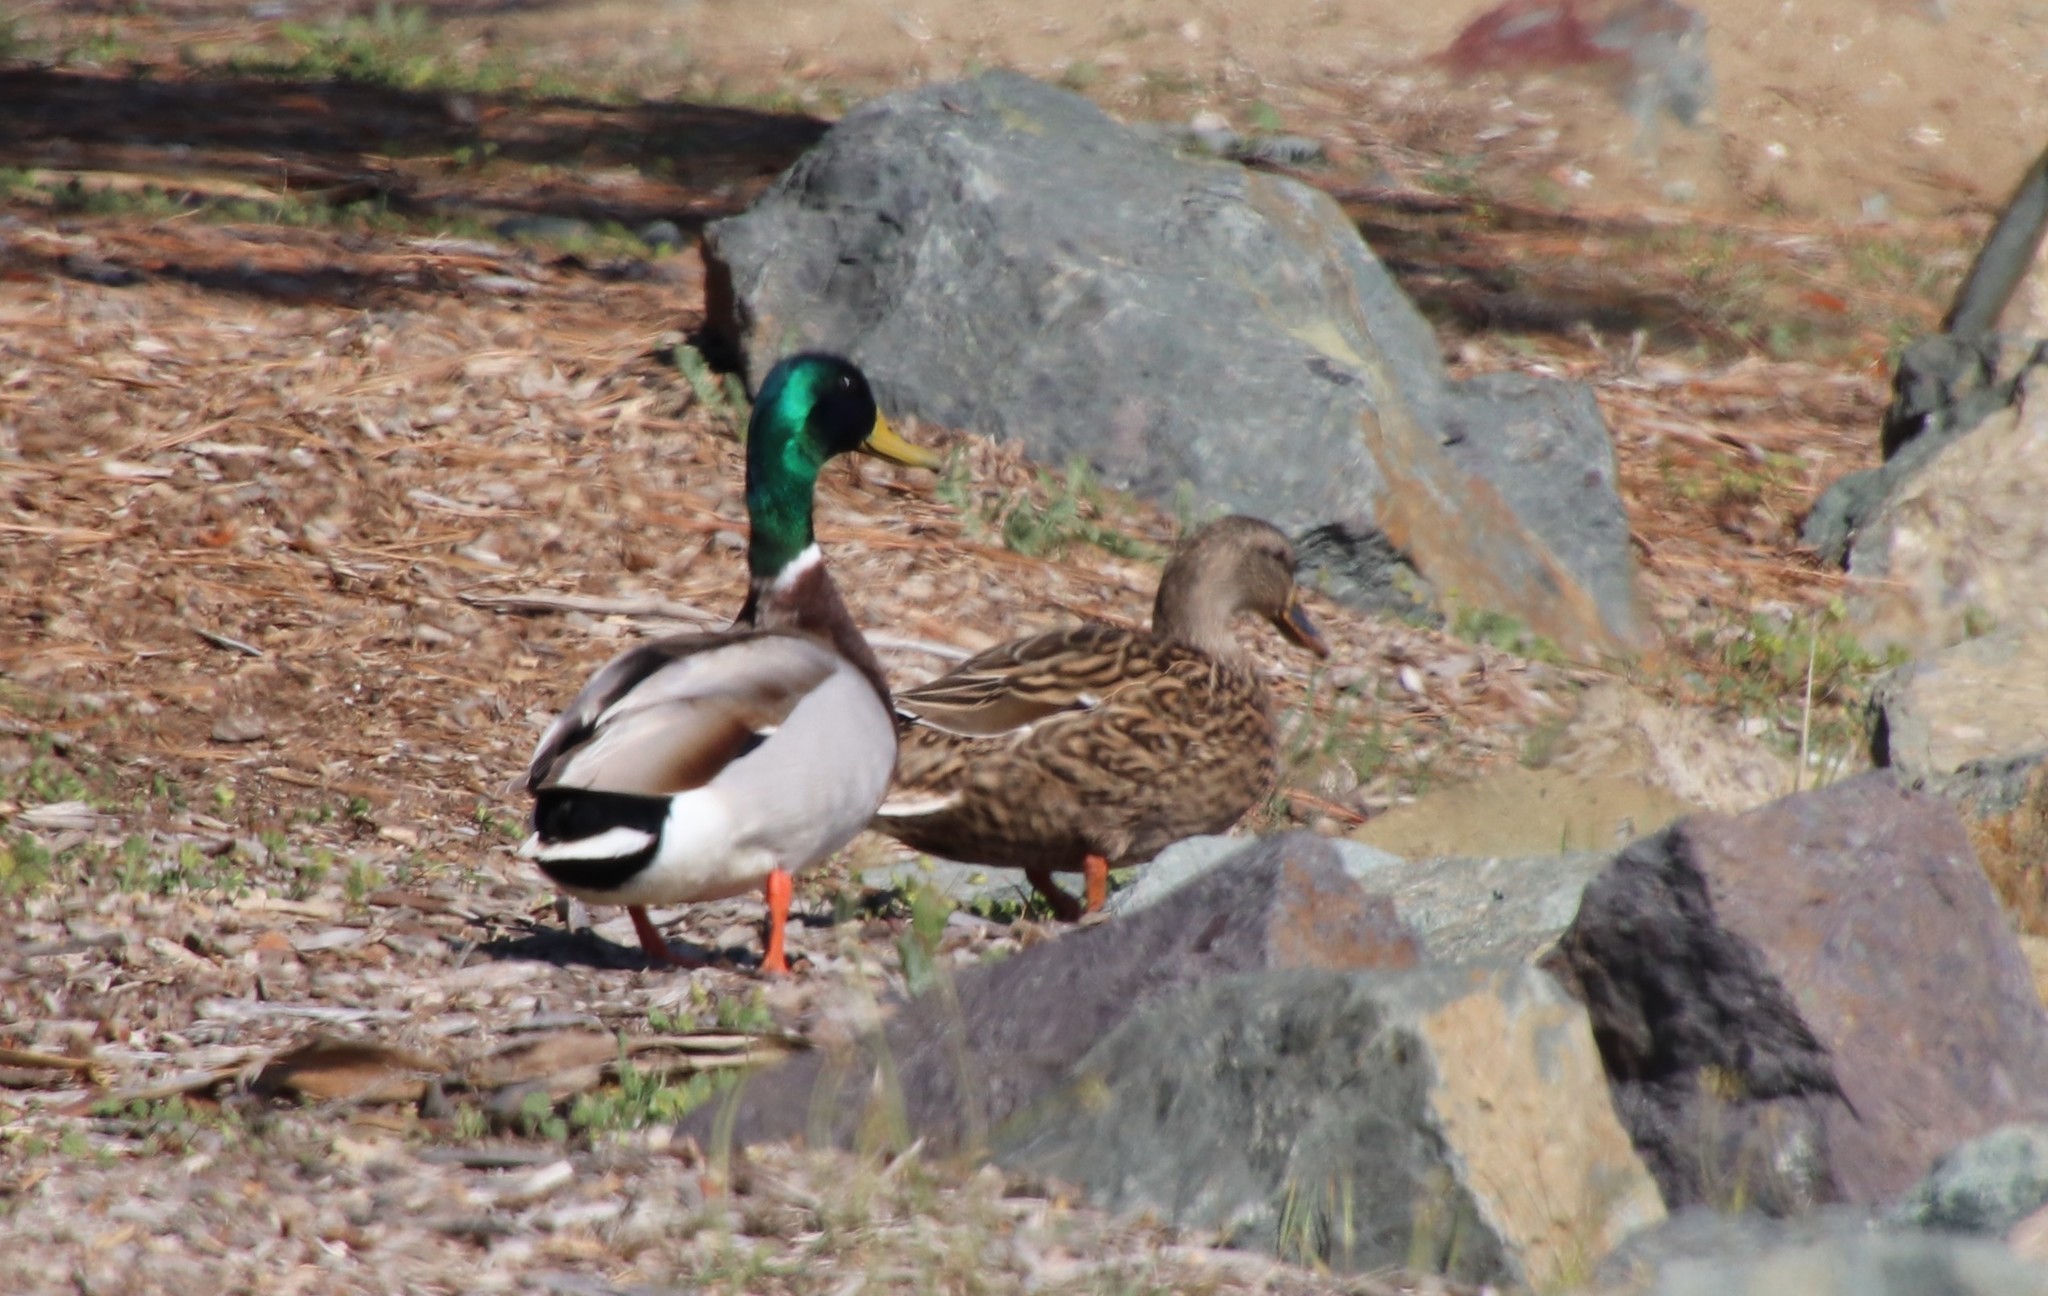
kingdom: Animalia
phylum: Chordata
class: Aves
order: Anseriformes
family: Anatidae
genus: Anas
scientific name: Anas platyrhynchos
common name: Mallard
